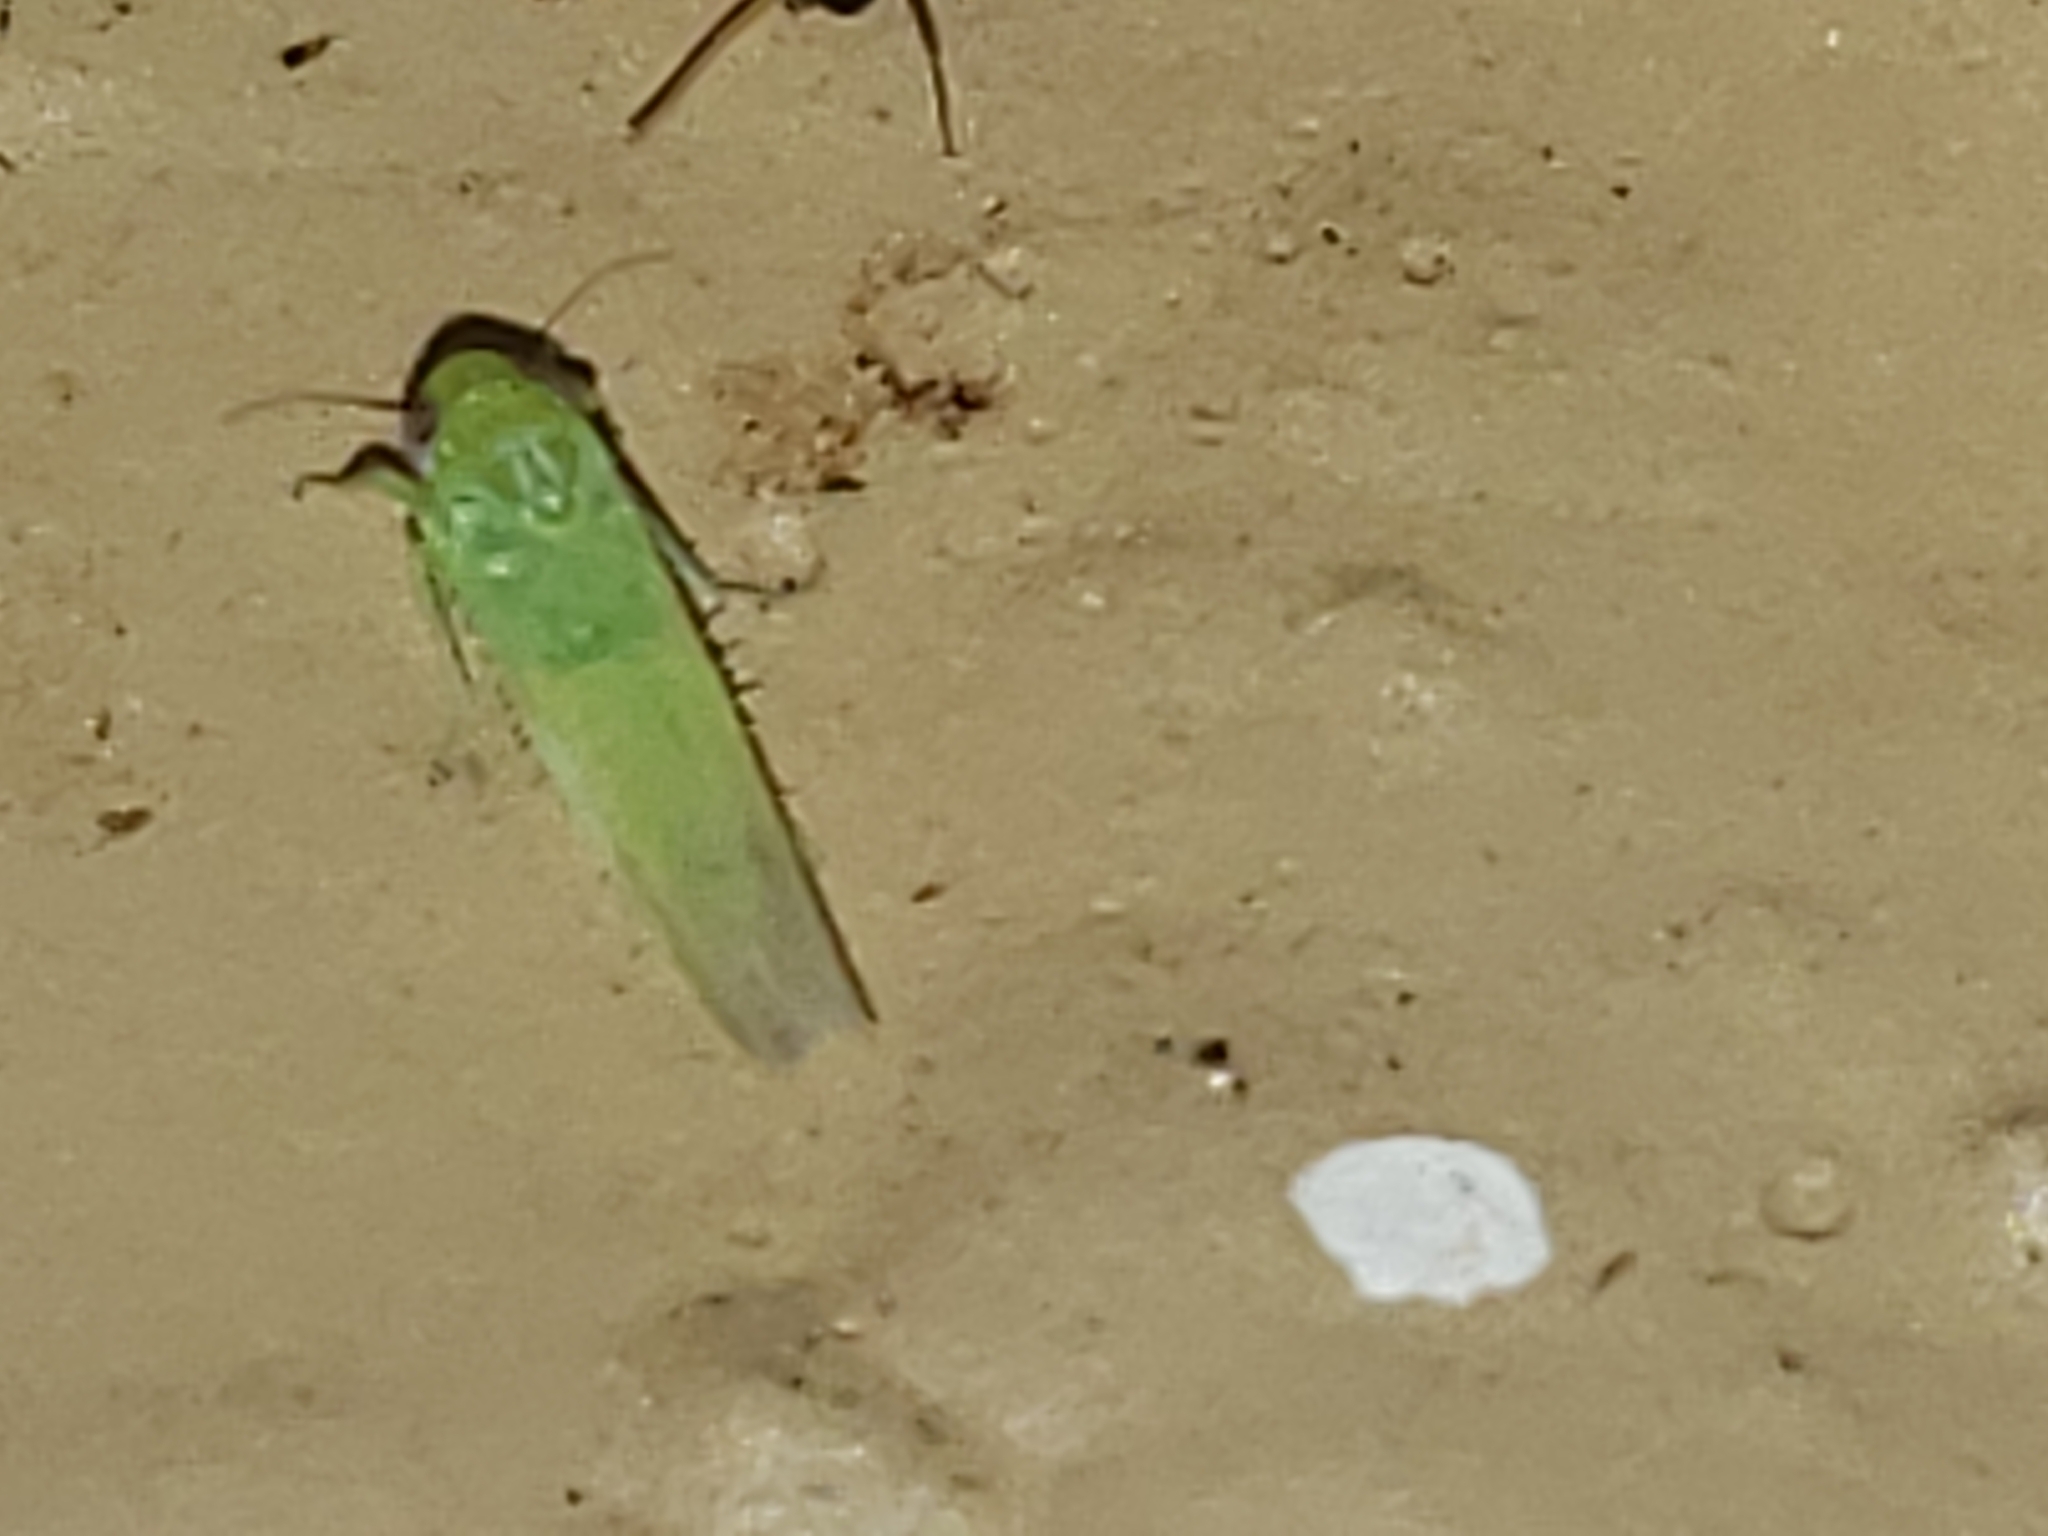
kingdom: Animalia
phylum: Arthropoda
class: Insecta
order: Hemiptera
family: Cicadellidae
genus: Empoasca
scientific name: Empoasca fabae
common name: Potato leafhopper
